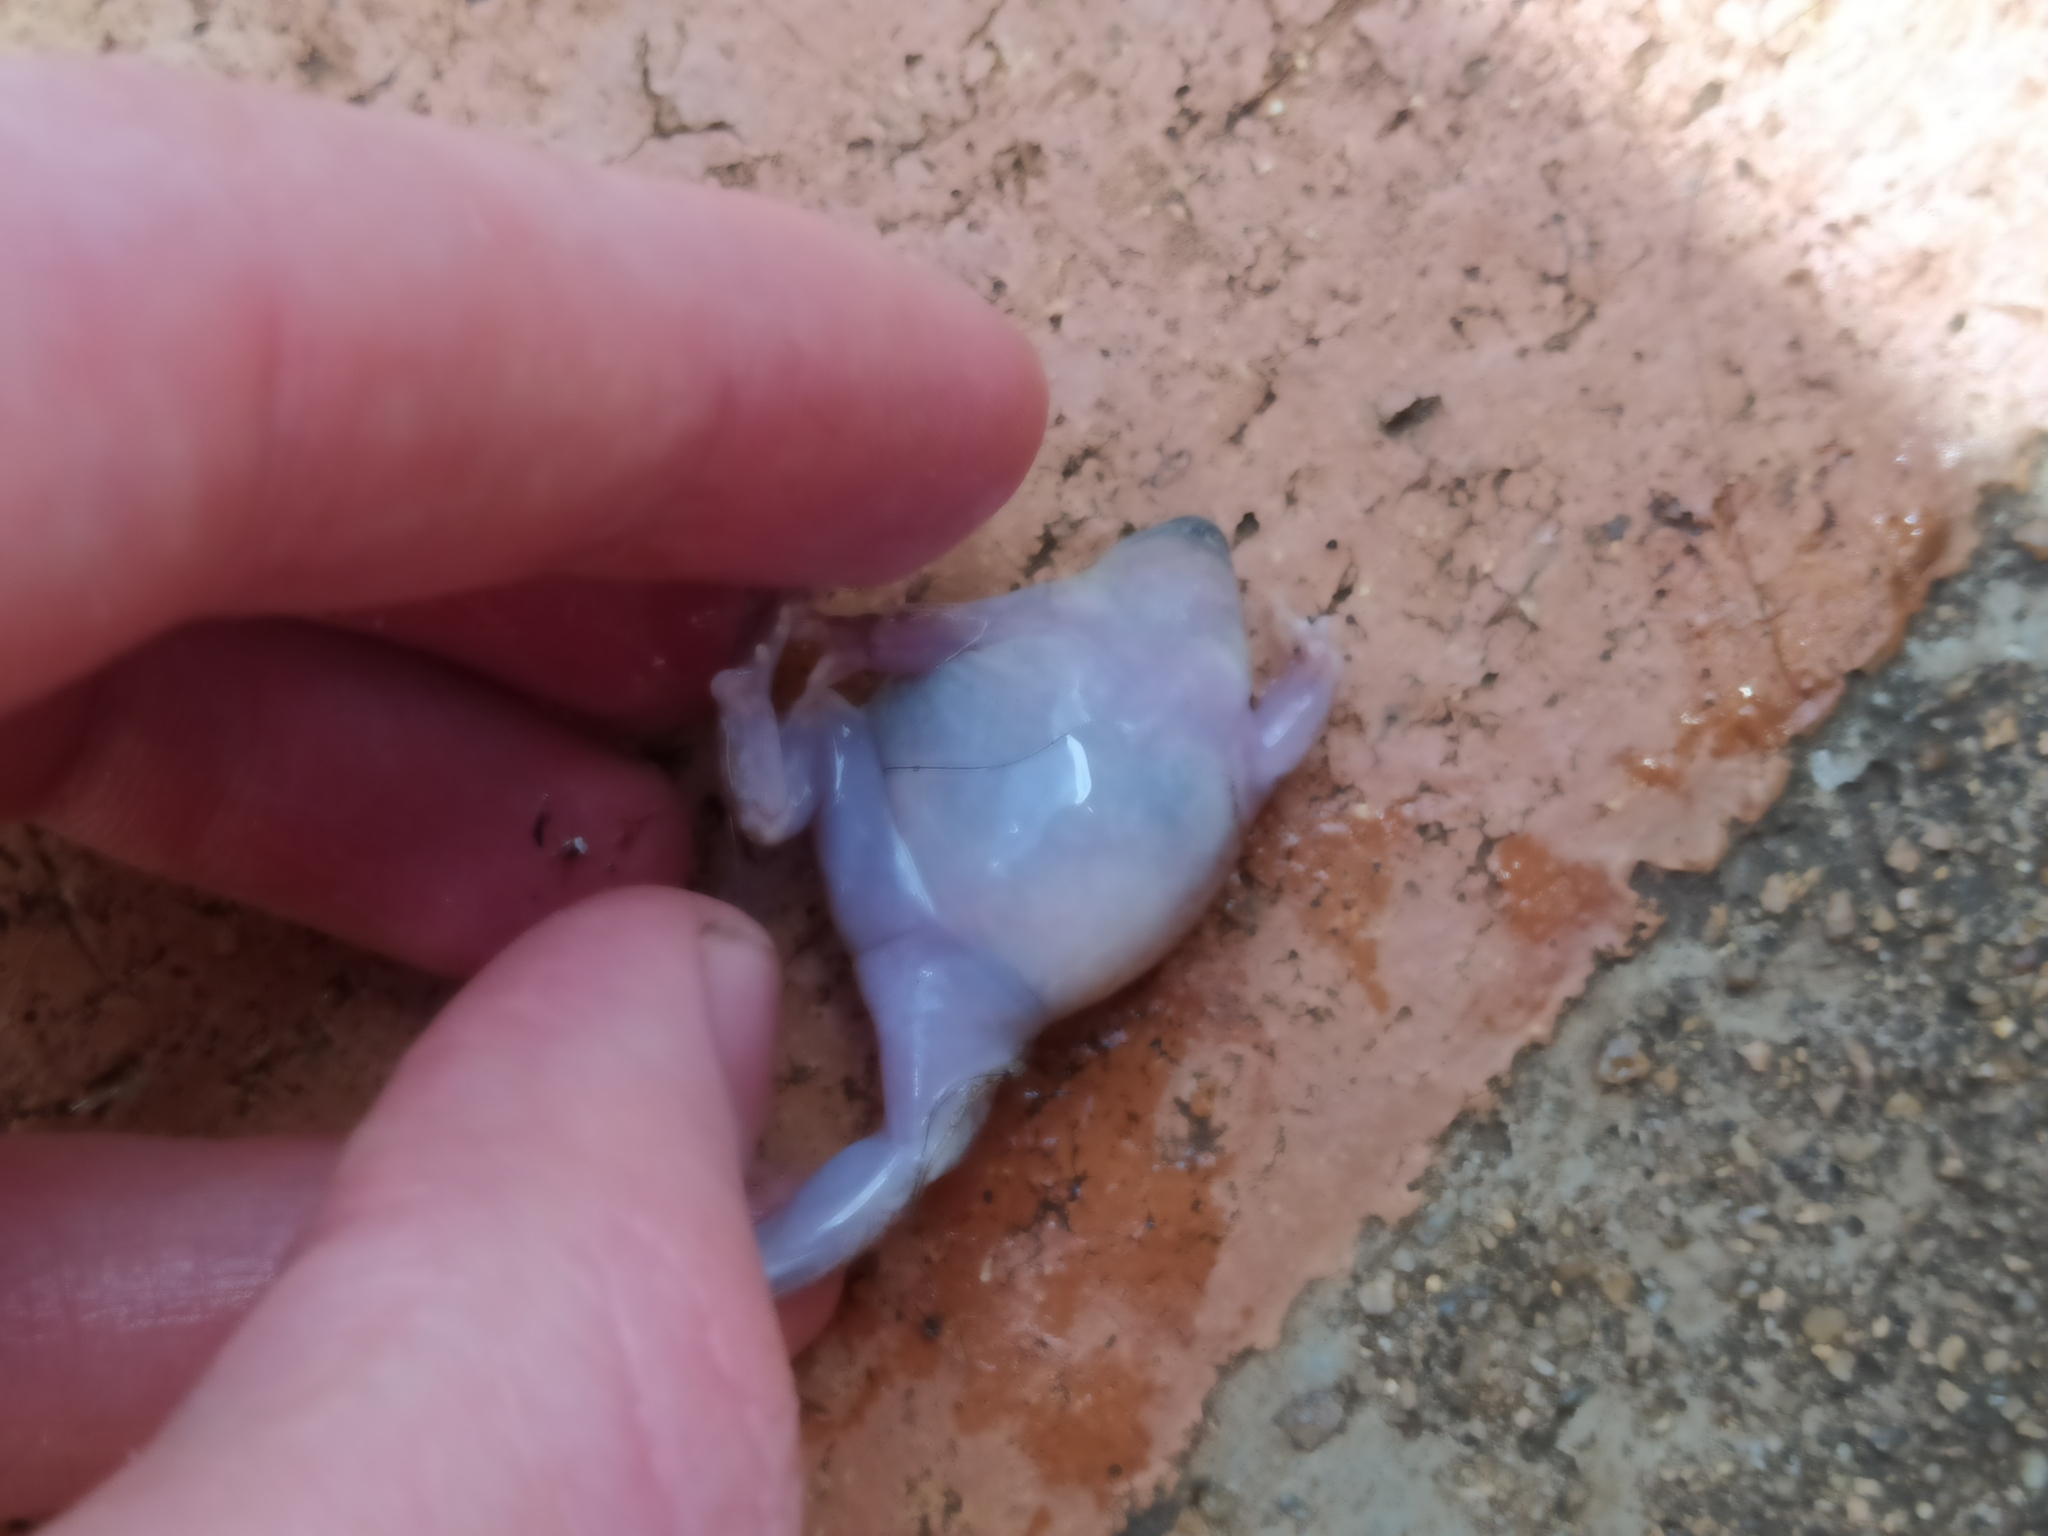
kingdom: Animalia
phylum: Chordata
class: Amphibia
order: Anura
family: Hemisotidae
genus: Hemisus
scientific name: Hemisus marmoratus
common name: Mottled shovel-nosed frog
